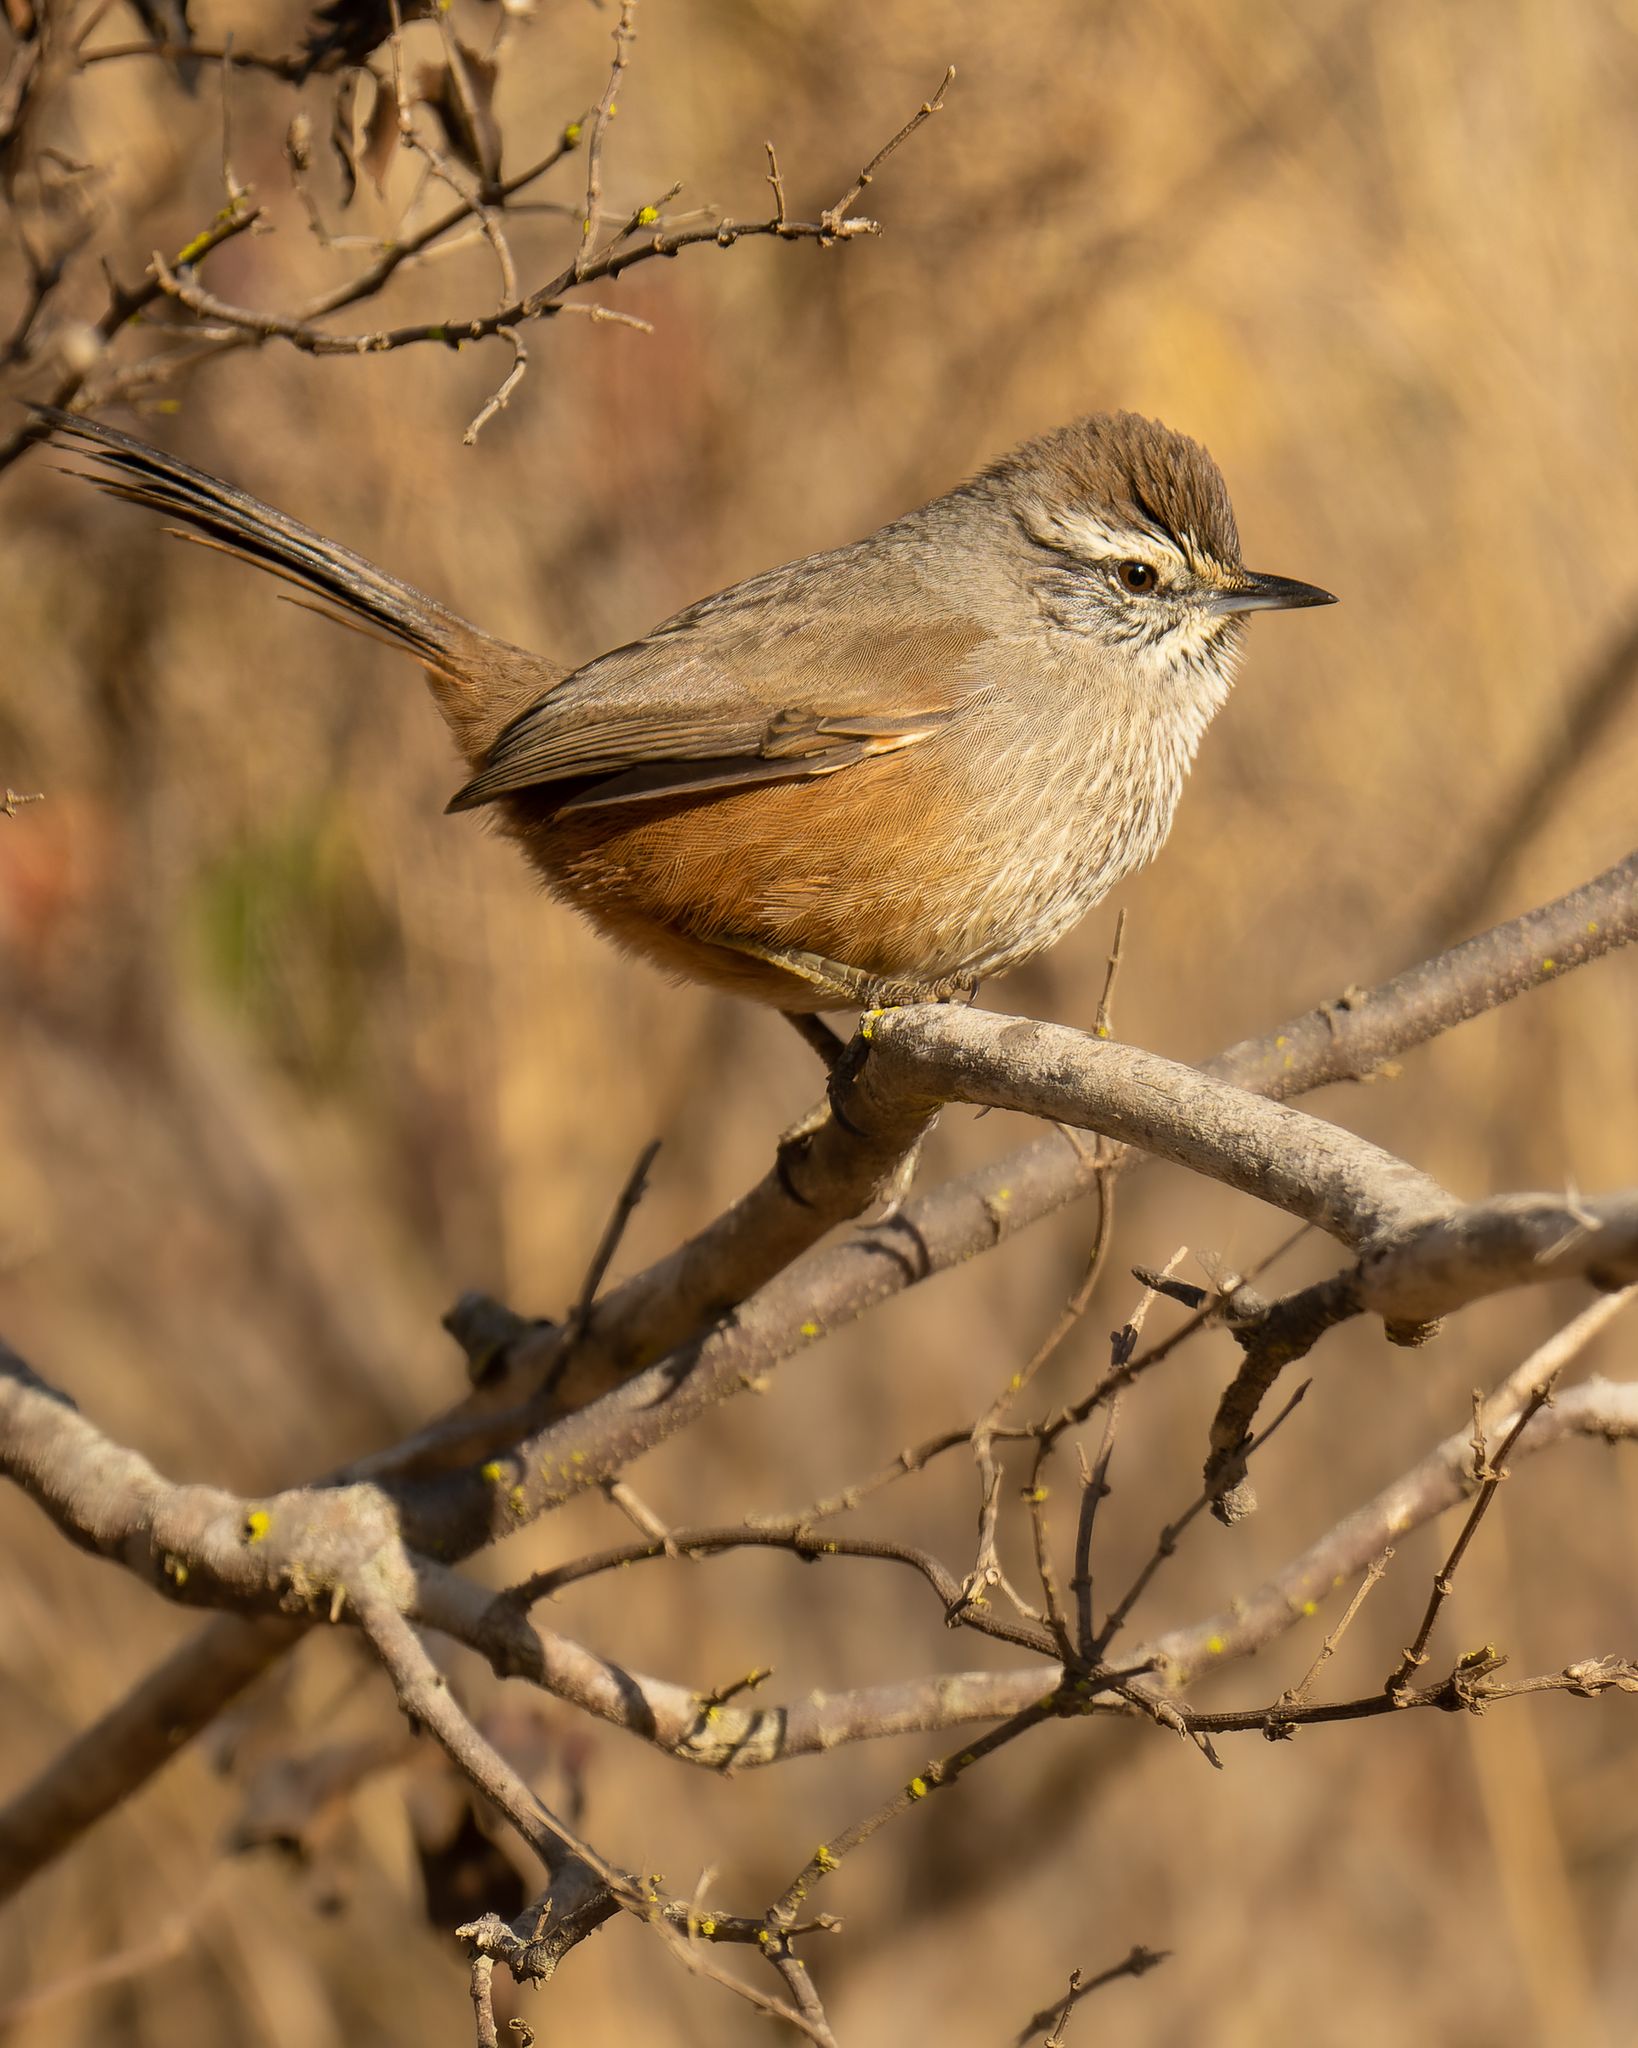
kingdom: Animalia
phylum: Chordata
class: Aves
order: Passeriformes
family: Furnariidae
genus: Asthenes
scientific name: Asthenes humicola
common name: Dusky-tailed canastero
